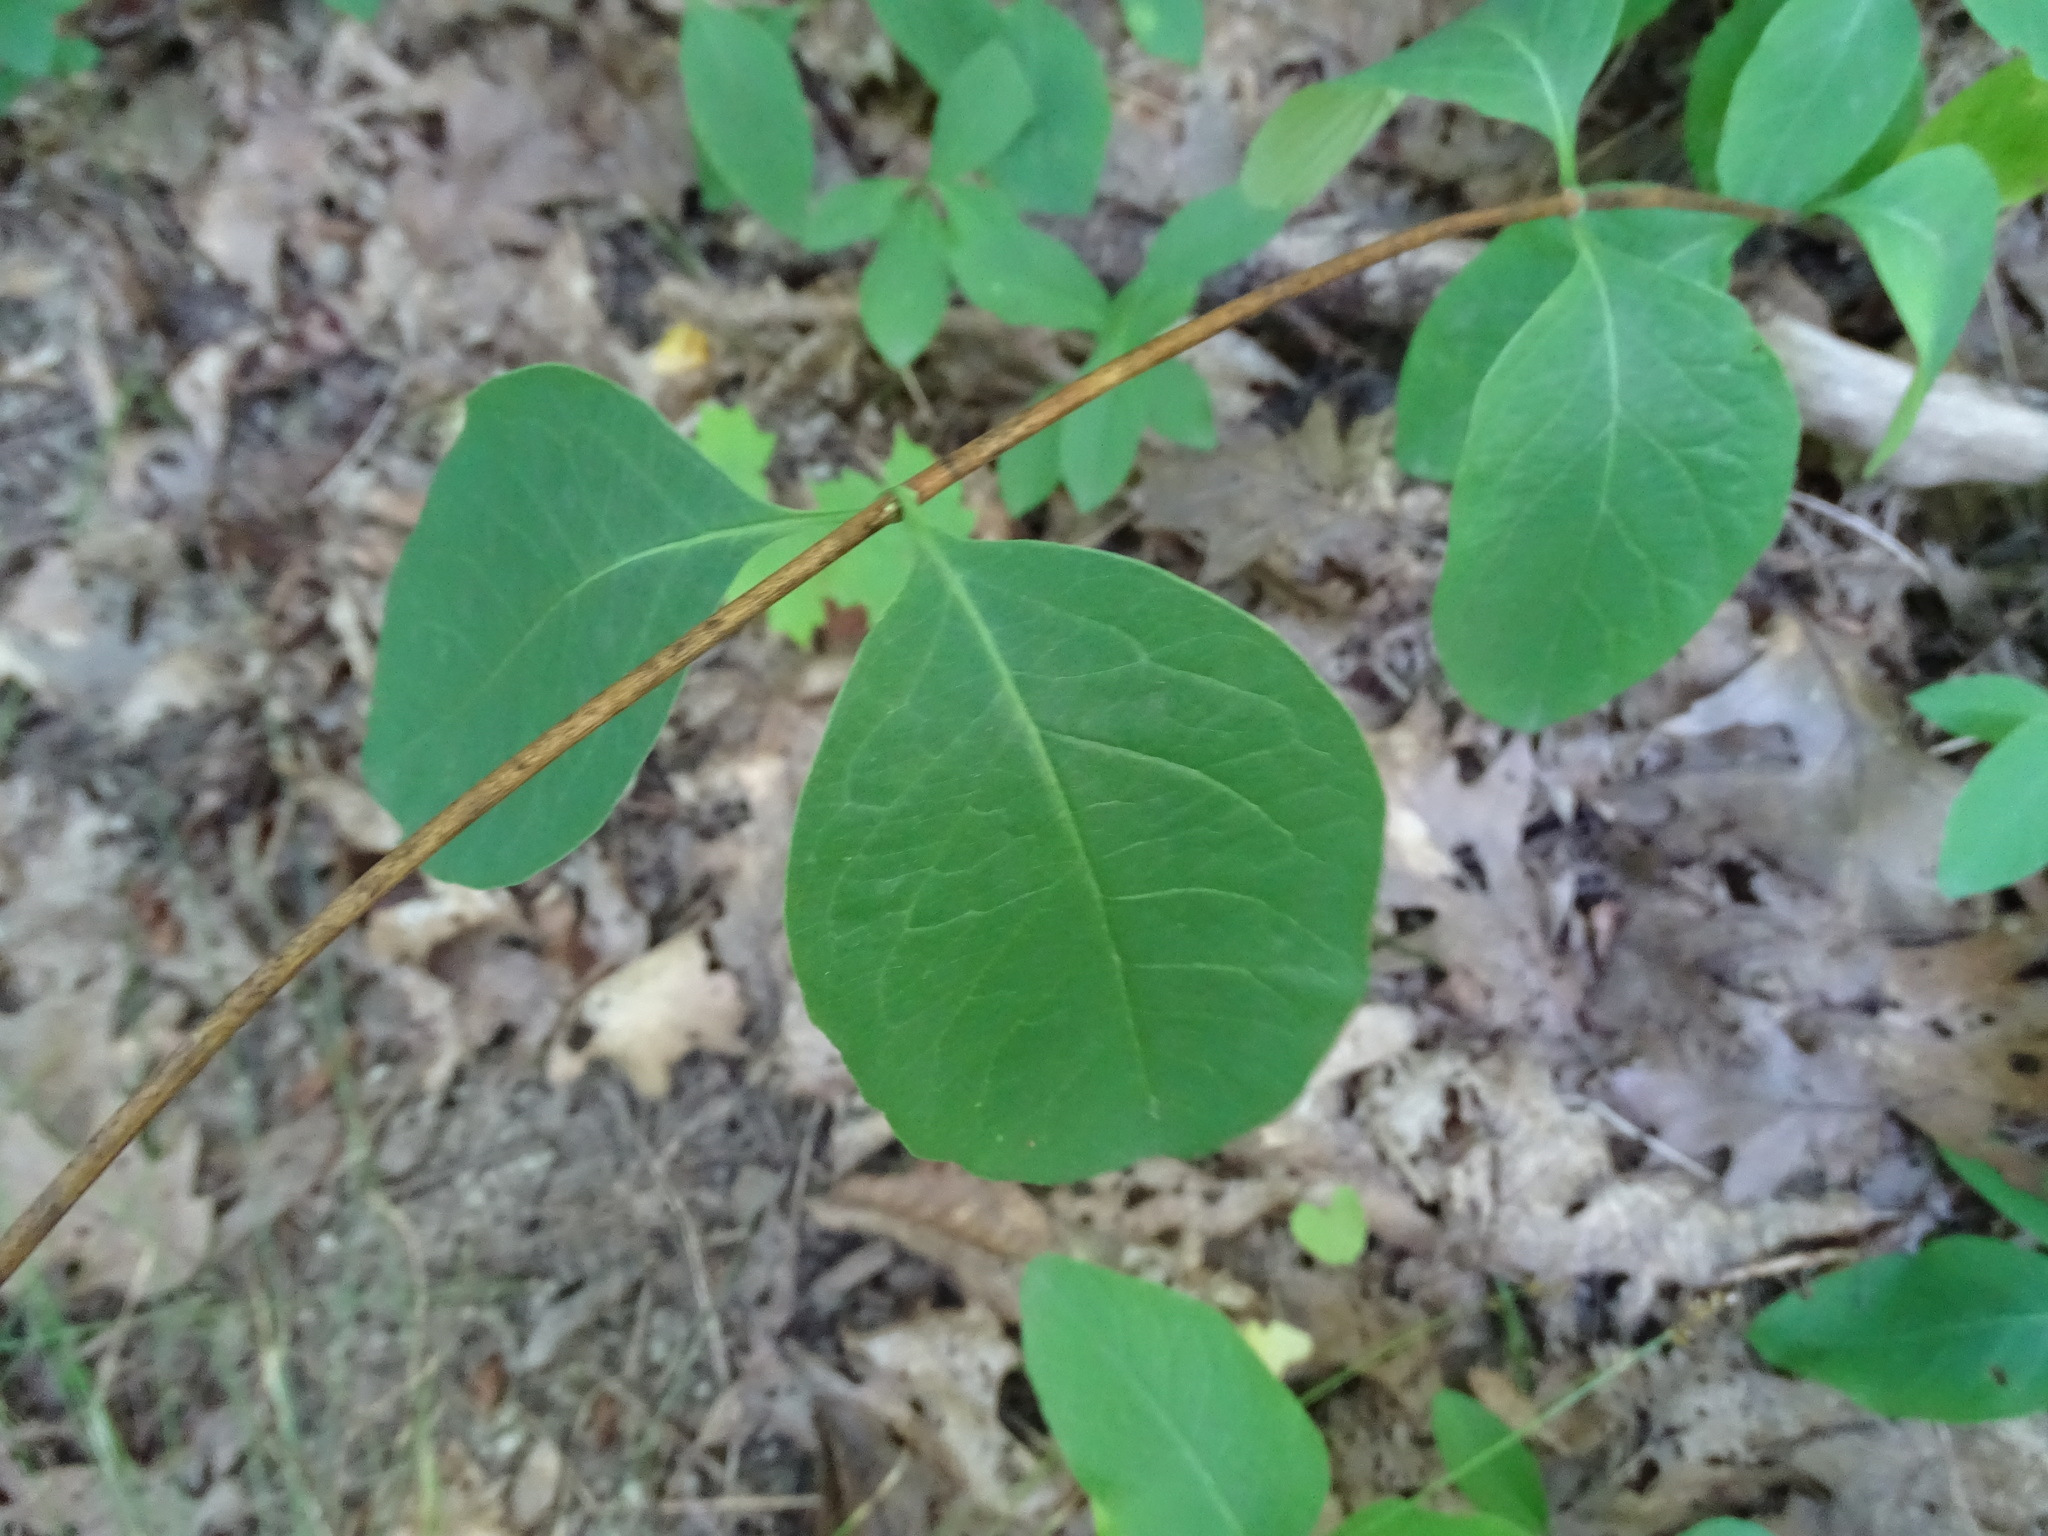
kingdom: Plantae
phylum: Tracheophyta
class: Magnoliopsida
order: Dipsacales
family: Caprifoliaceae
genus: Lonicera
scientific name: Lonicera dioica
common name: Limber honeysuckle
